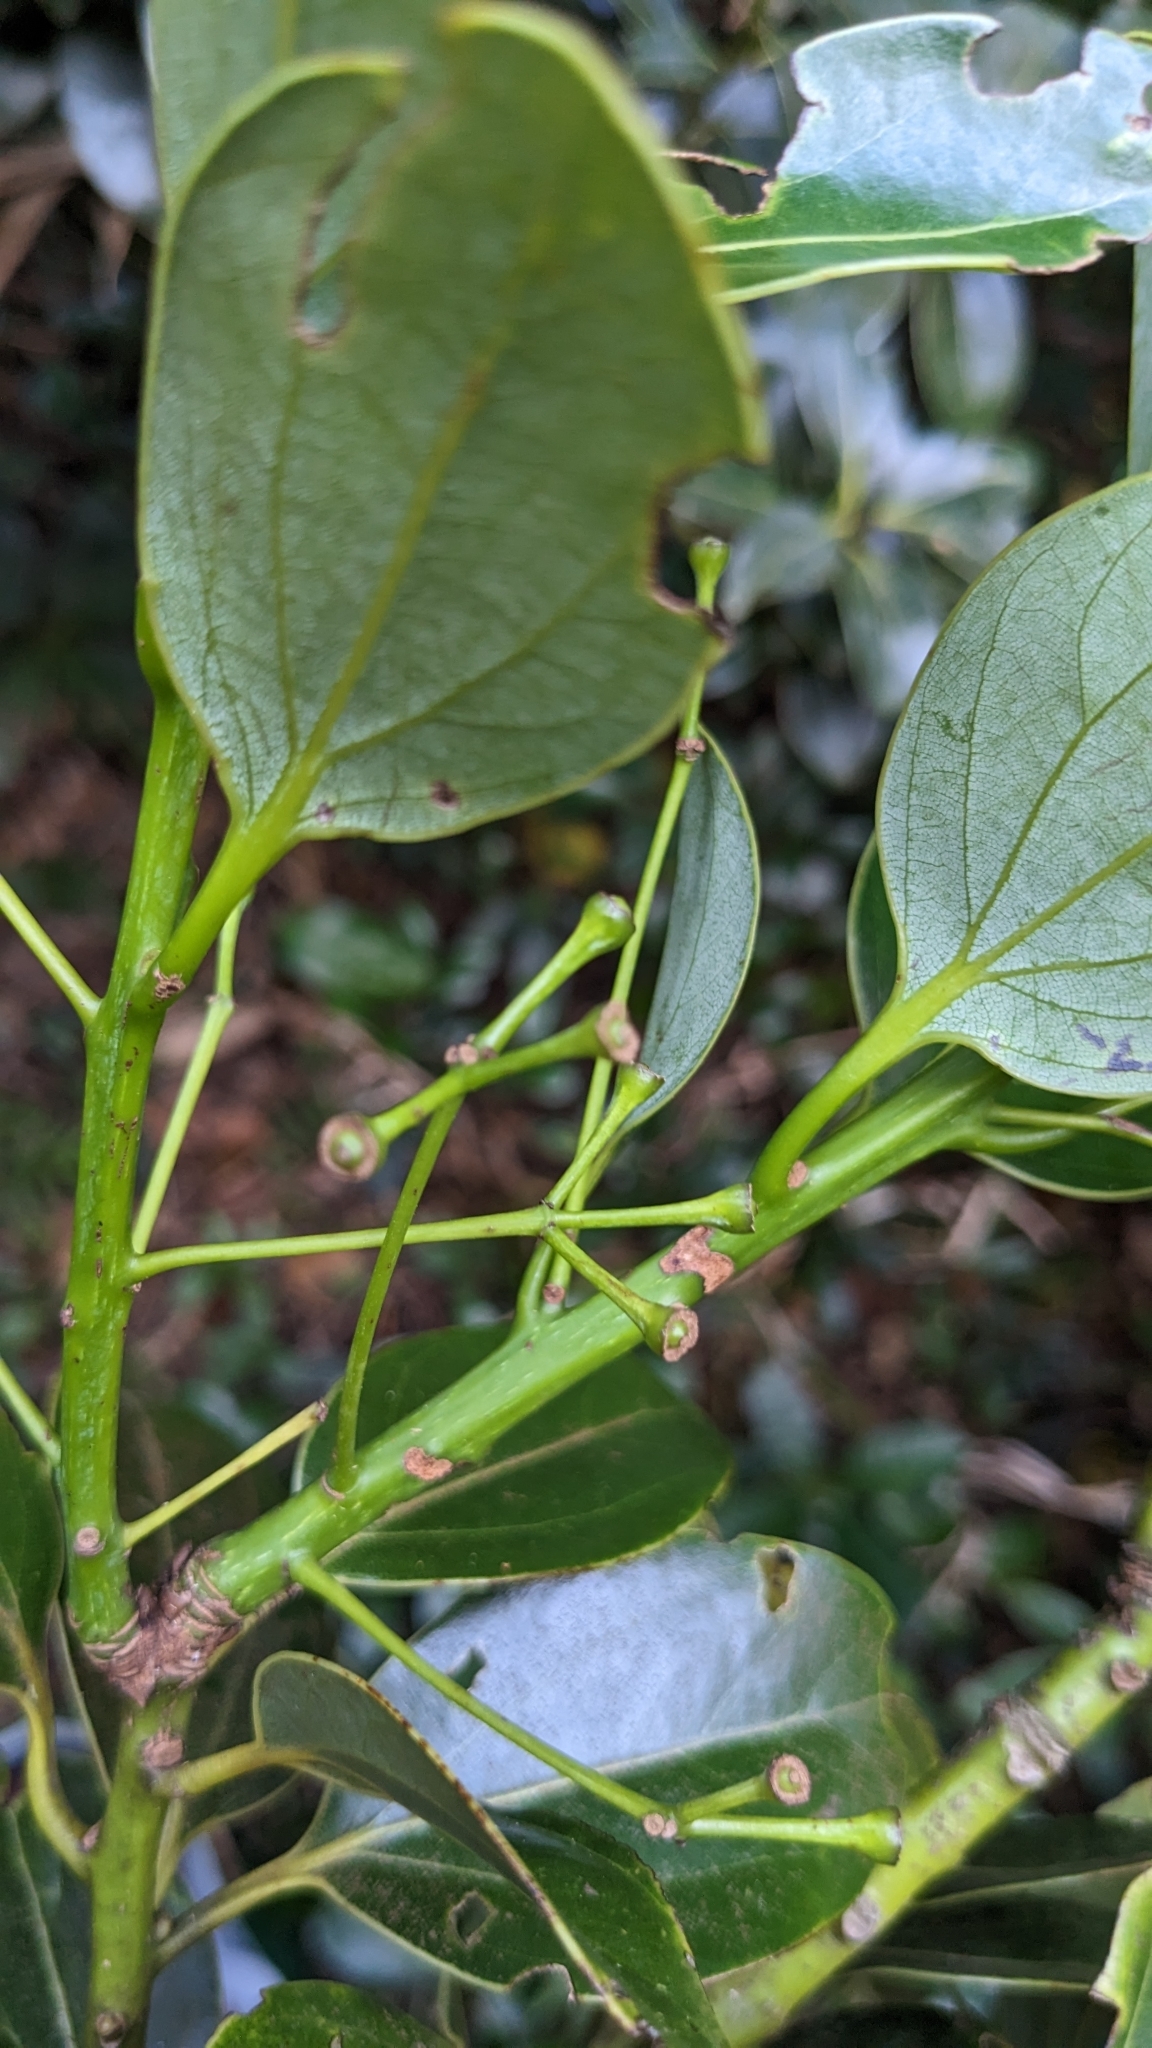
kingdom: Plantae
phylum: Tracheophyta
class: Magnoliopsida
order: Laurales
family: Lauraceae
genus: Cinnamomum
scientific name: Cinnamomum chekiangense
